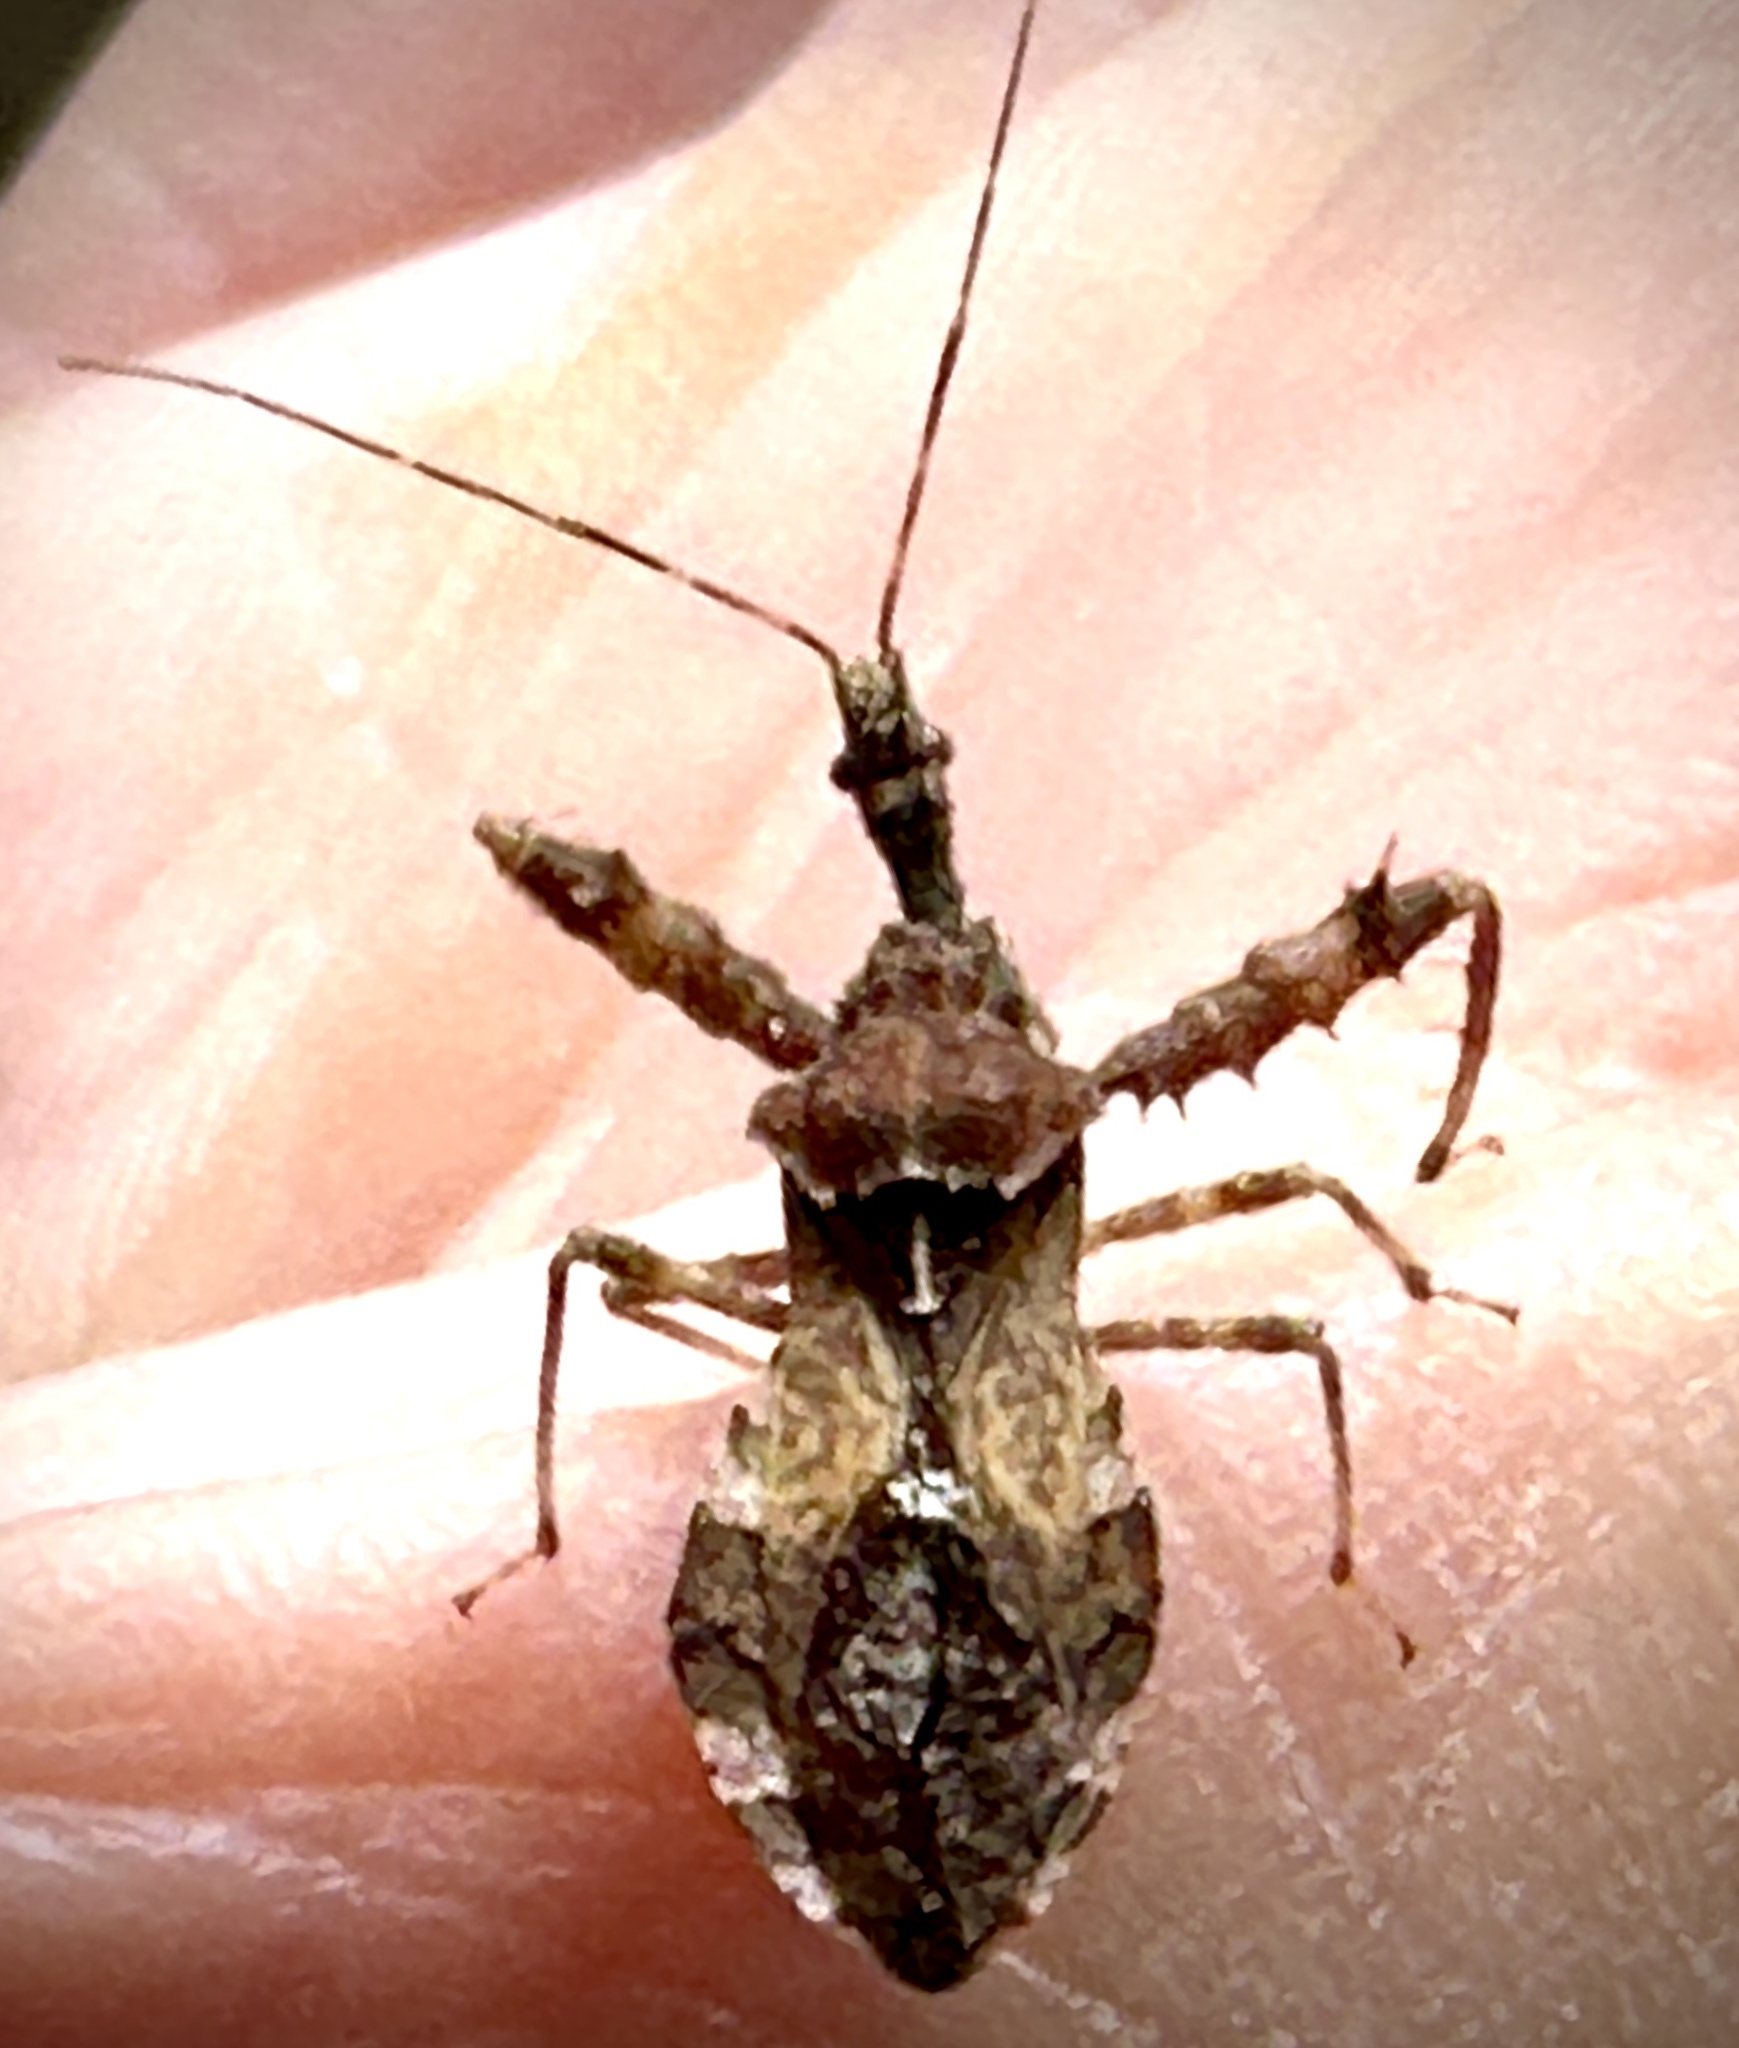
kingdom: Animalia
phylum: Arthropoda
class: Insecta
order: Hemiptera
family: Reduviidae
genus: Sinea
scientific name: Sinea spinipes
